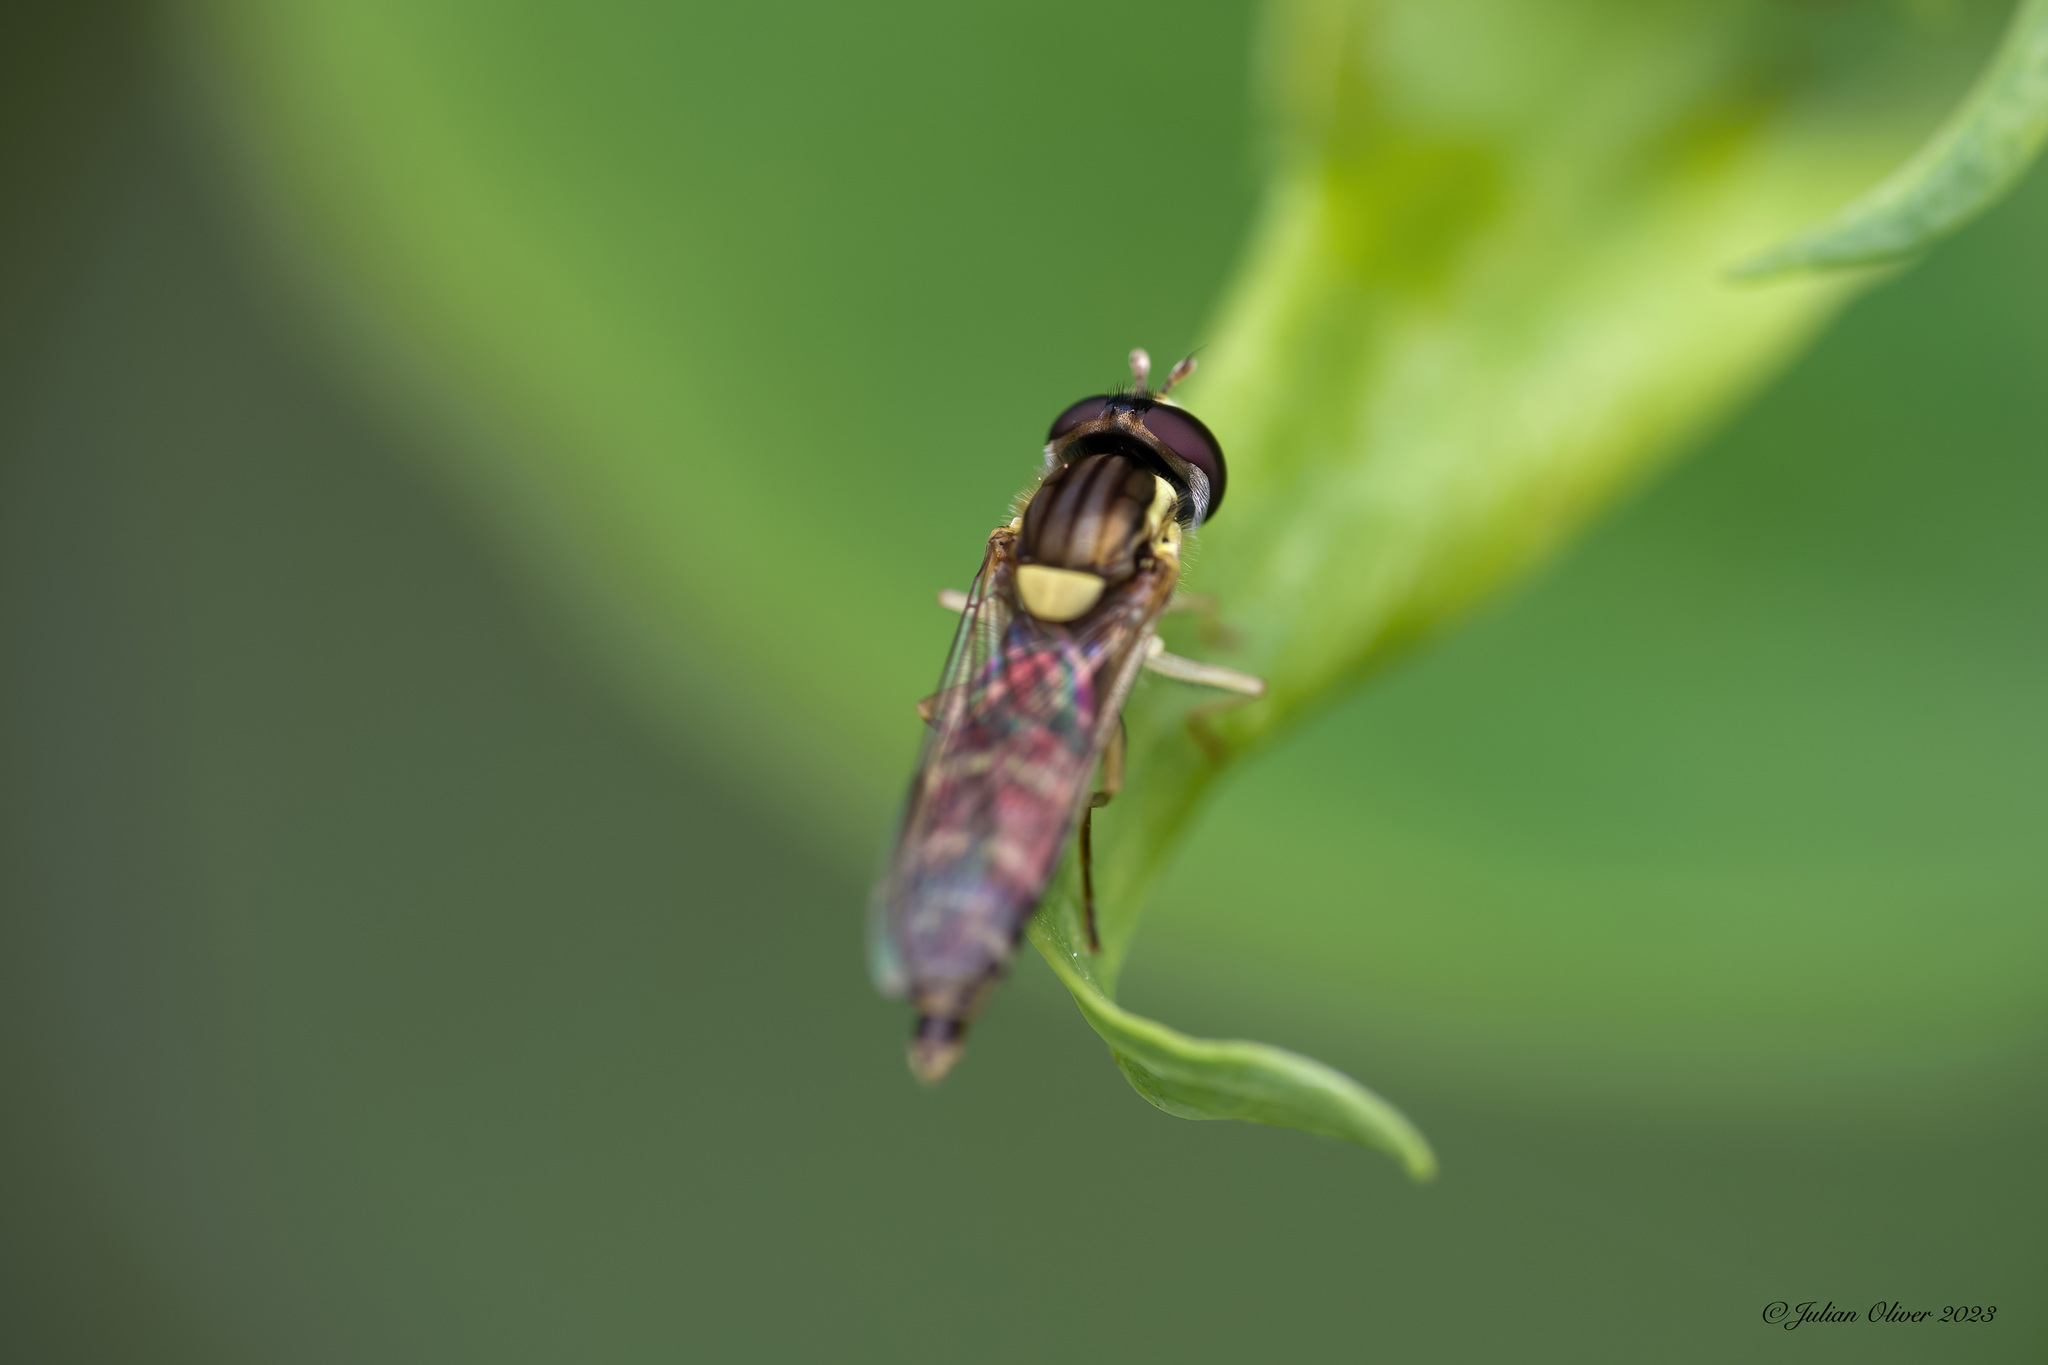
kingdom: Animalia
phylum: Arthropoda
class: Insecta
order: Diptera
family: Syrphidae
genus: Sphaerophoria
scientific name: Sphaerophoria
